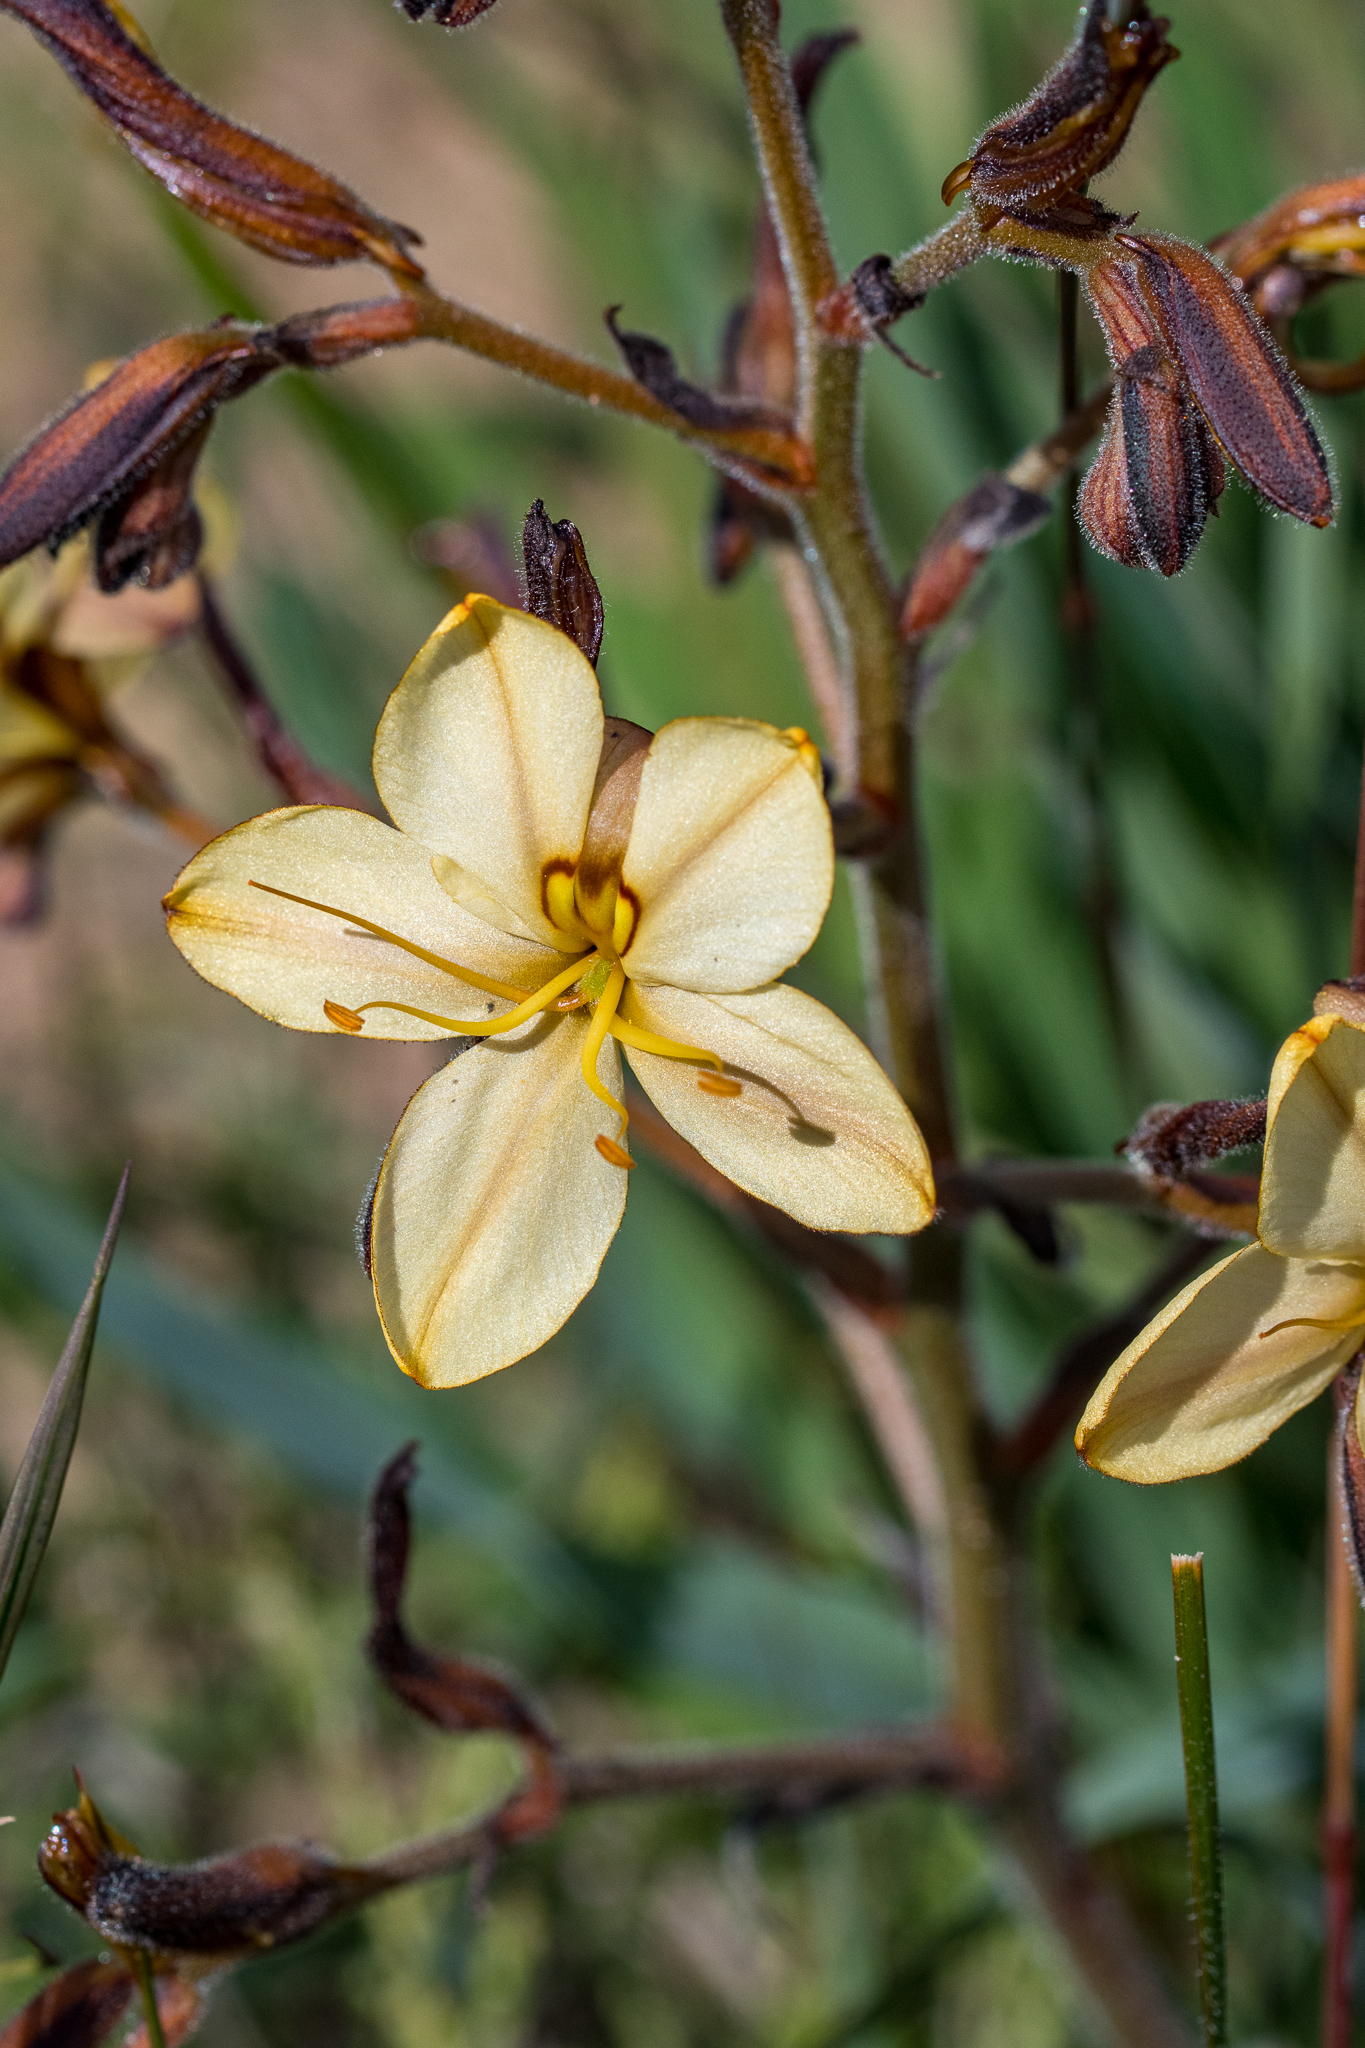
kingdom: Plantae
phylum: Tracheophyta
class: Liliopsida
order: Commelinales
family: Haemodoraceae
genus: Wachendorfia
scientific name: Wachendorfia paniculata
